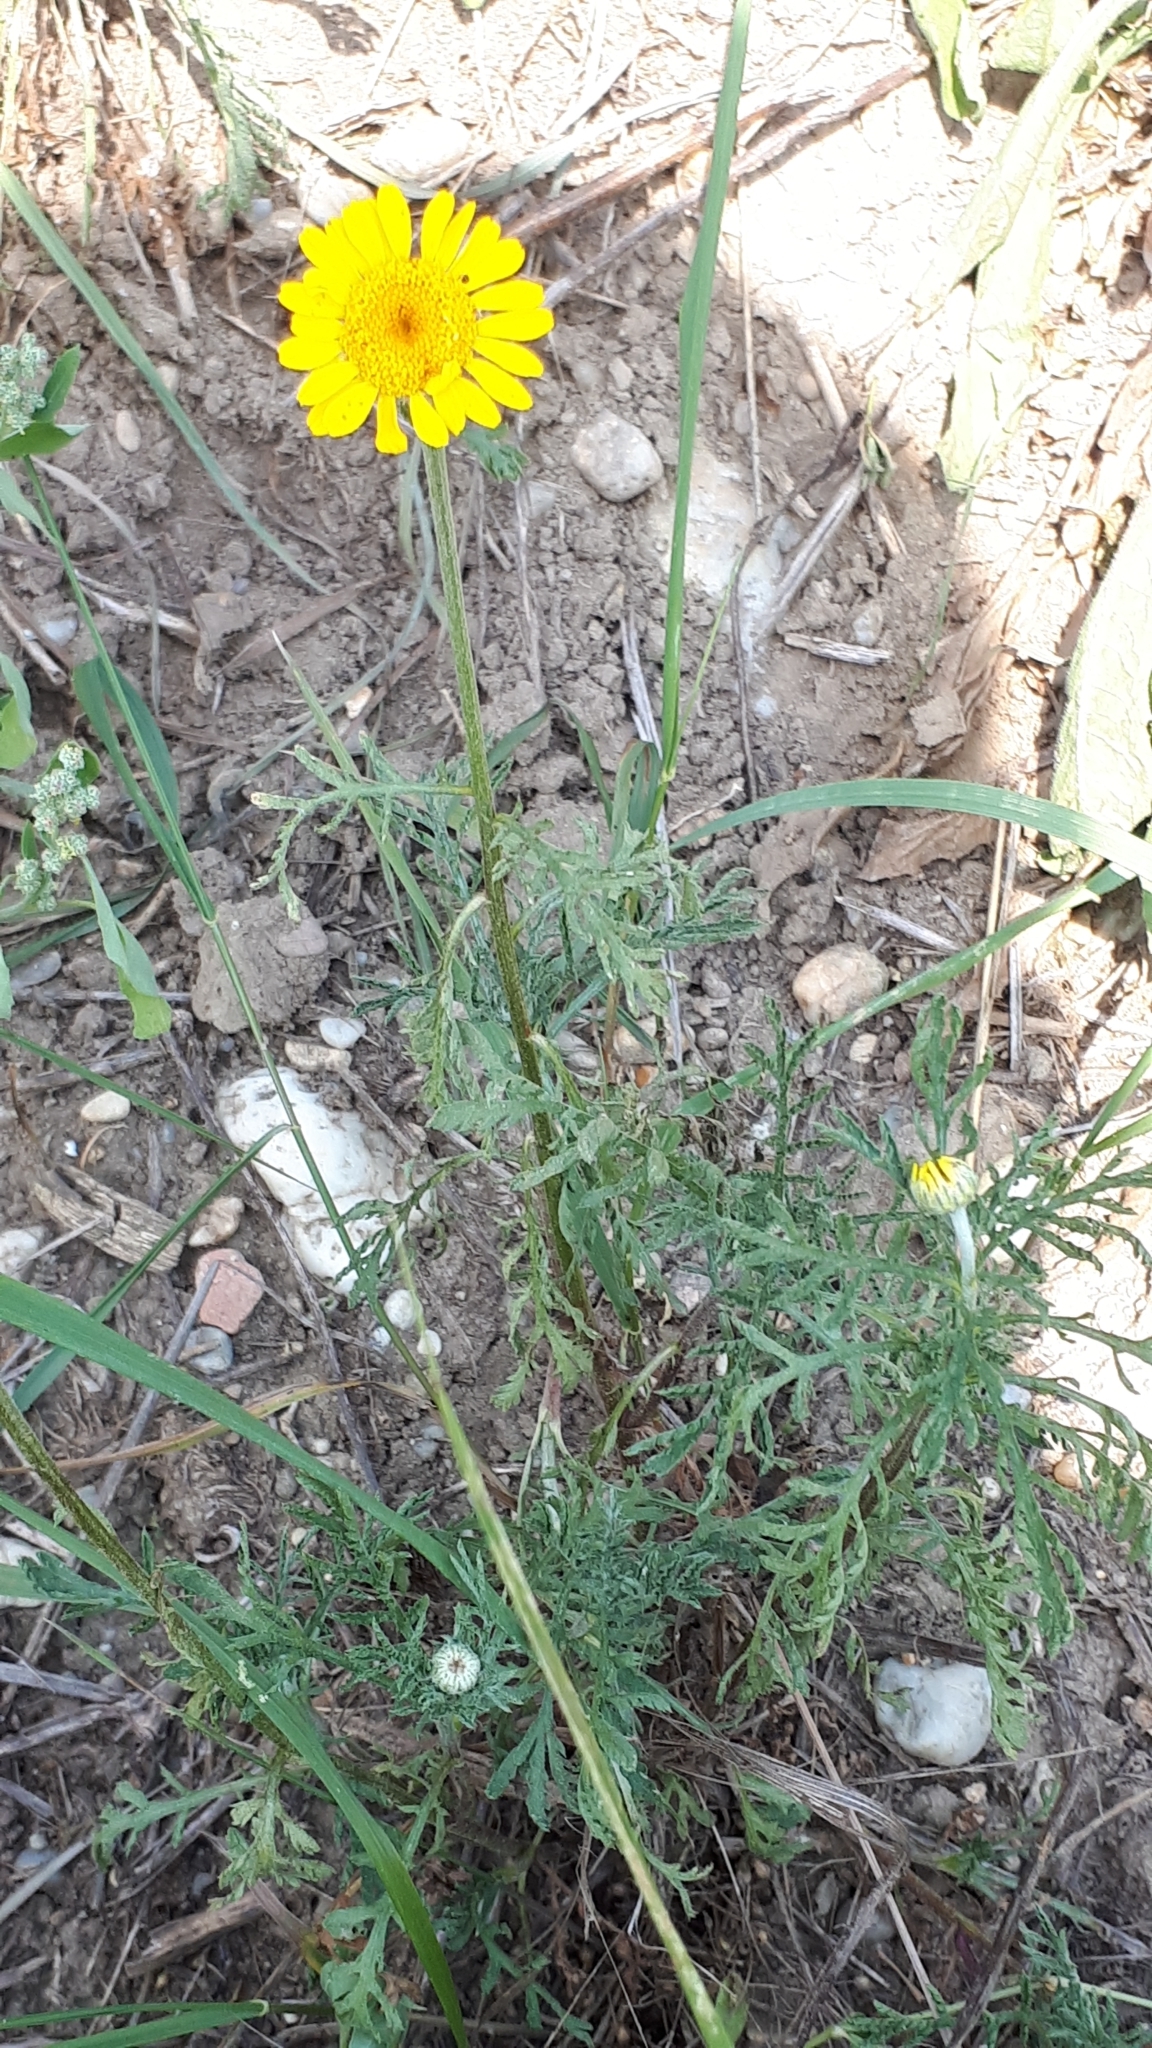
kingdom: Plantae
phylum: Tracheophyta
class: Magnoliopsida
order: Asterales
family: Asteraceae
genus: Cota
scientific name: Cota tinctoria
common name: Golden chamomile
